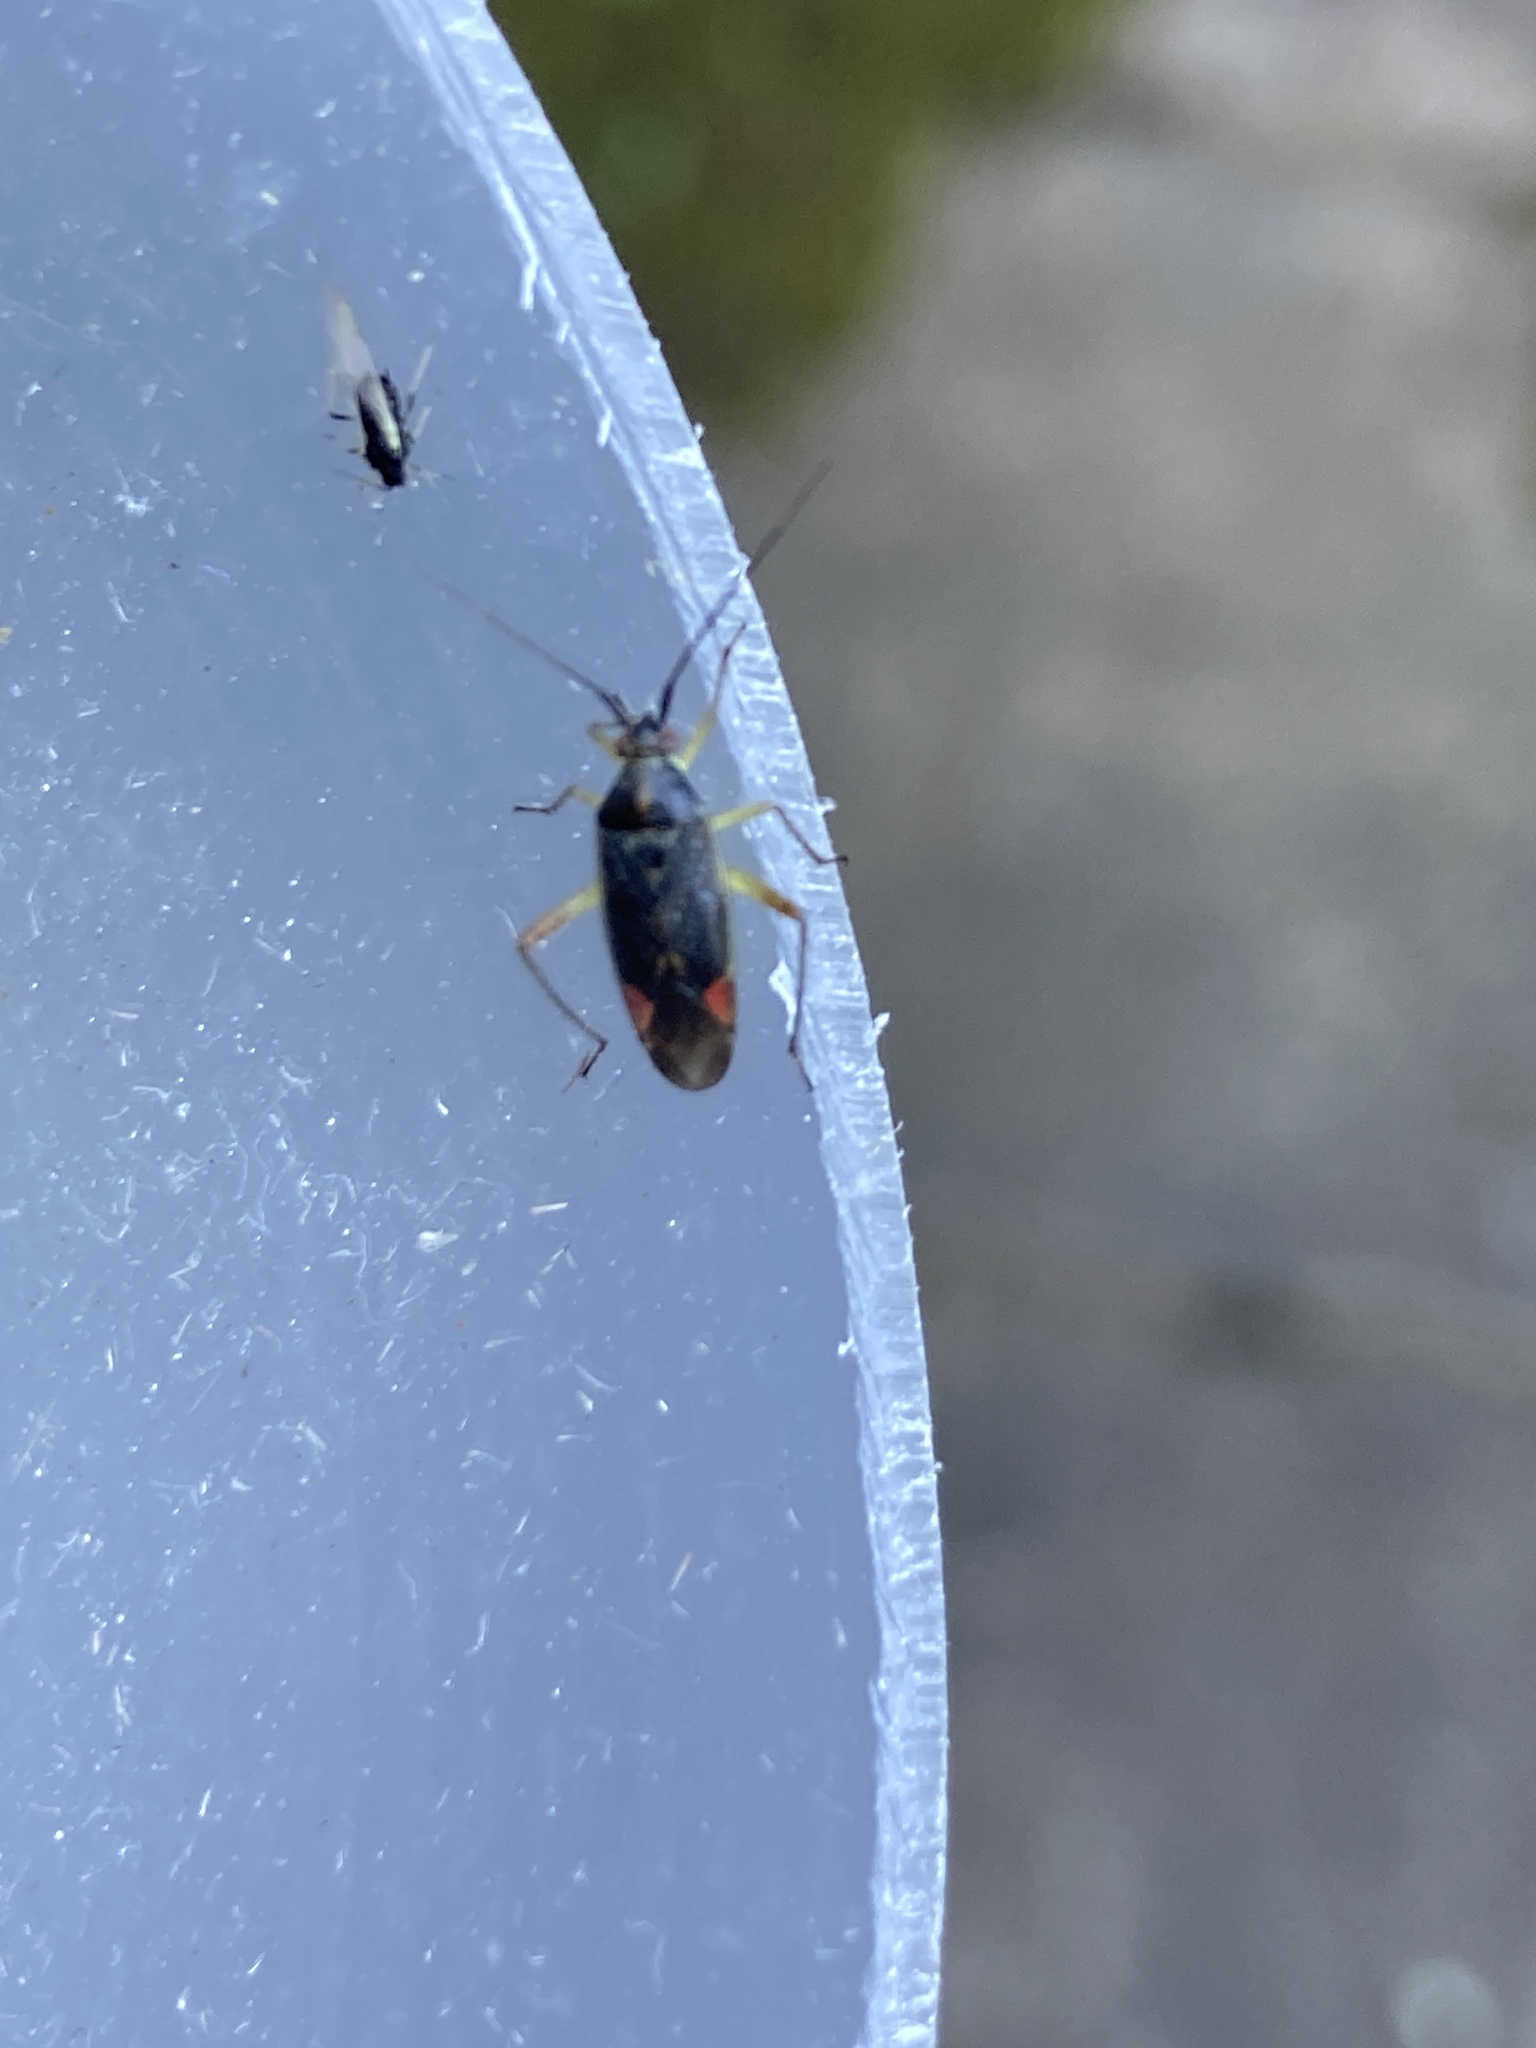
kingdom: Animalia
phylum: Arthropoda
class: Insecta
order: Hemiptera
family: Miridae
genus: Closterotomus
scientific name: Closterotomus trivialis
